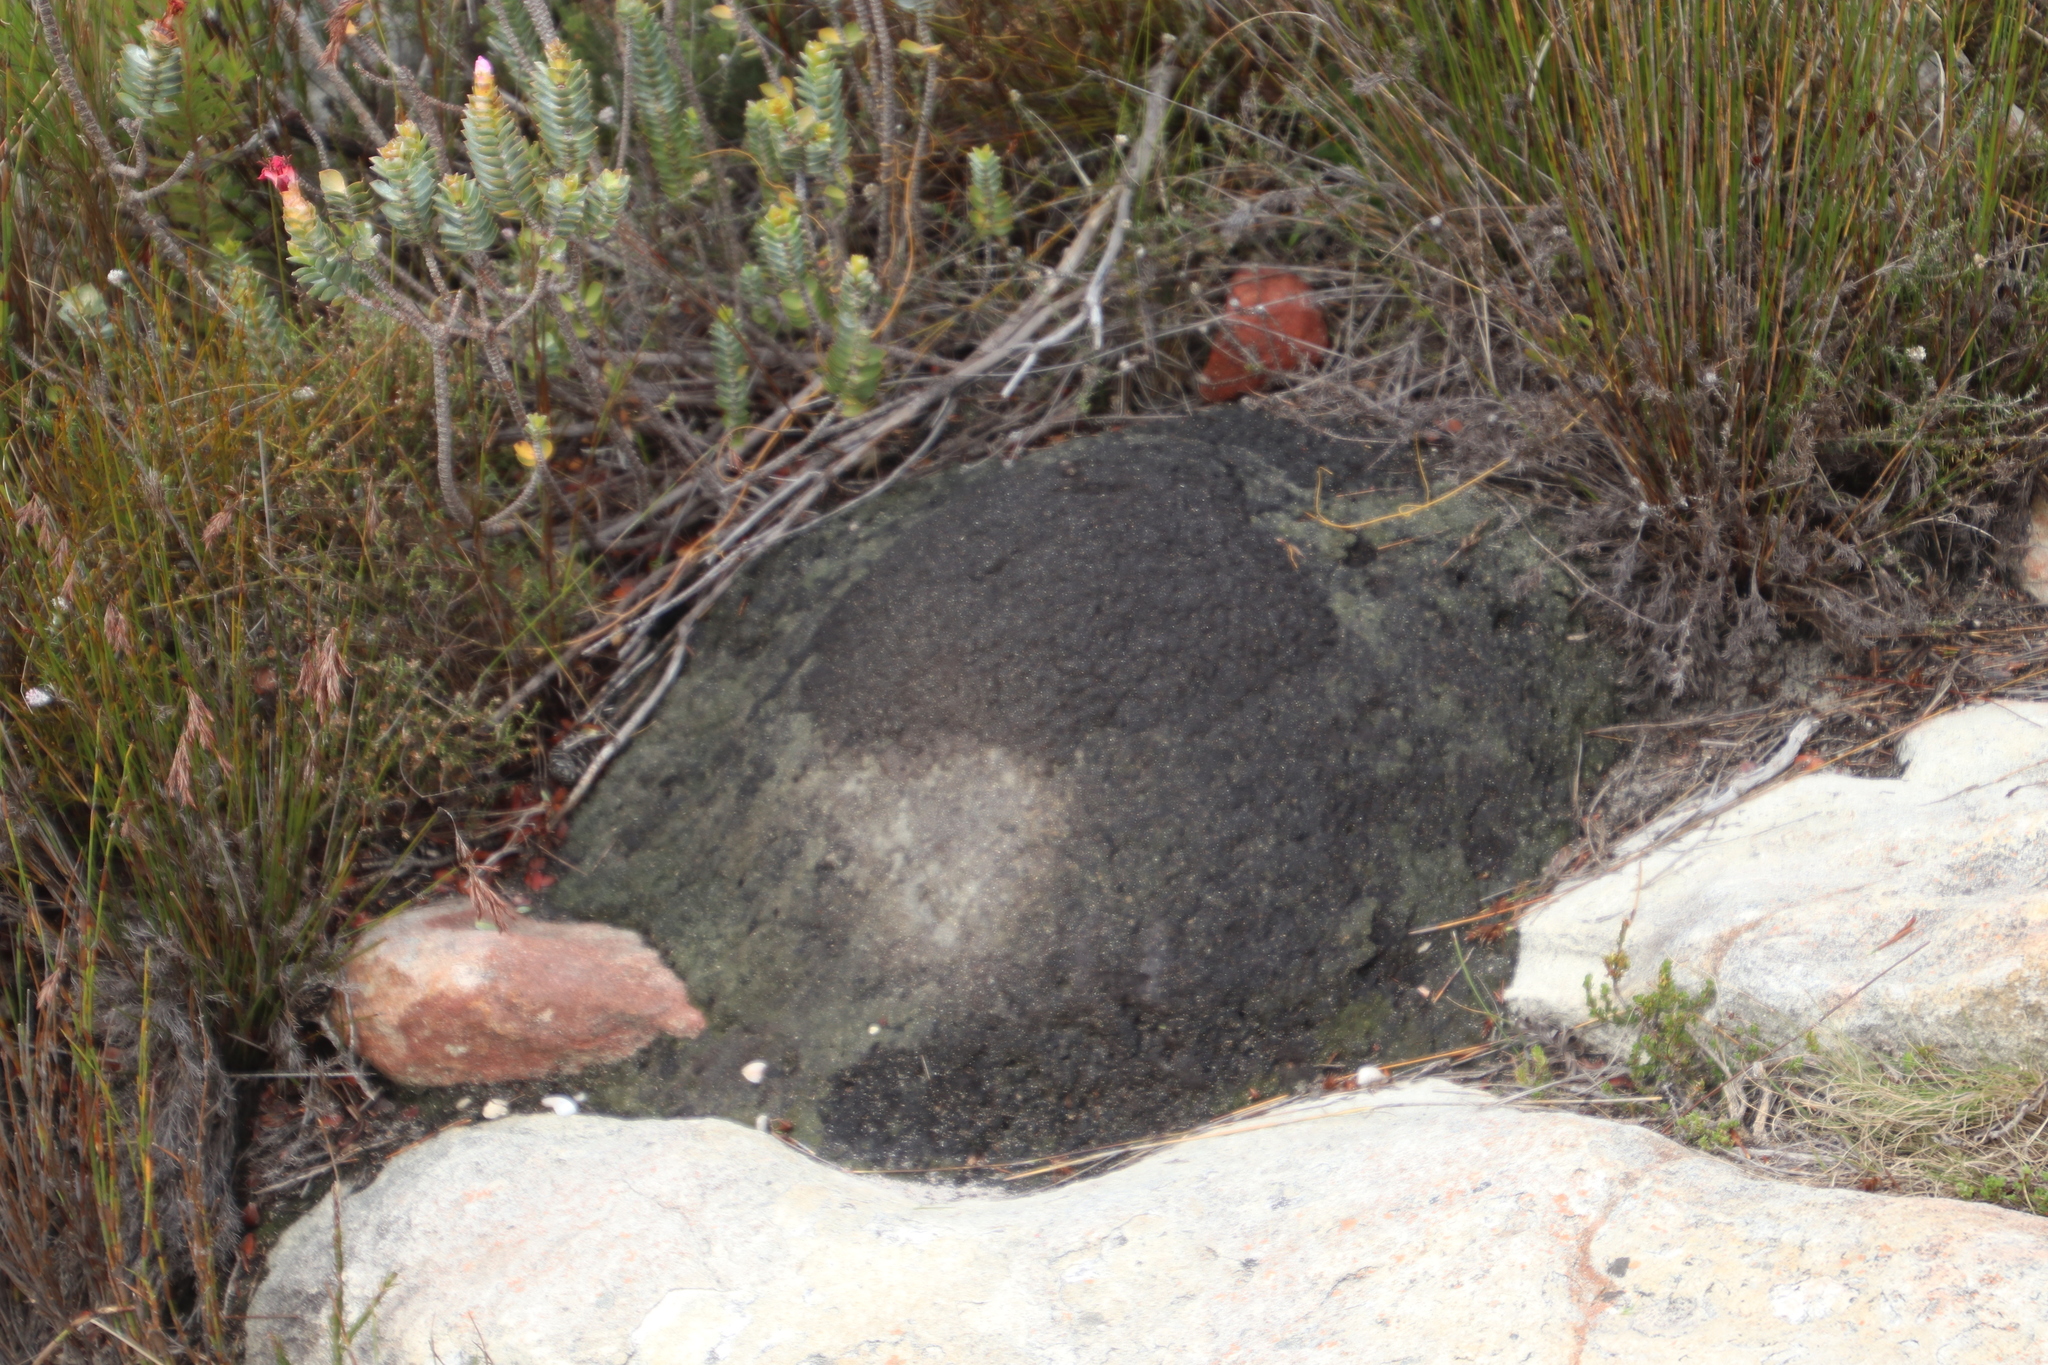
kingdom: Animalia
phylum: Arthropoda
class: Insecta
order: Blattodea
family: Termitidae
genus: Amitermes
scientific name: Amitermes hastatus
